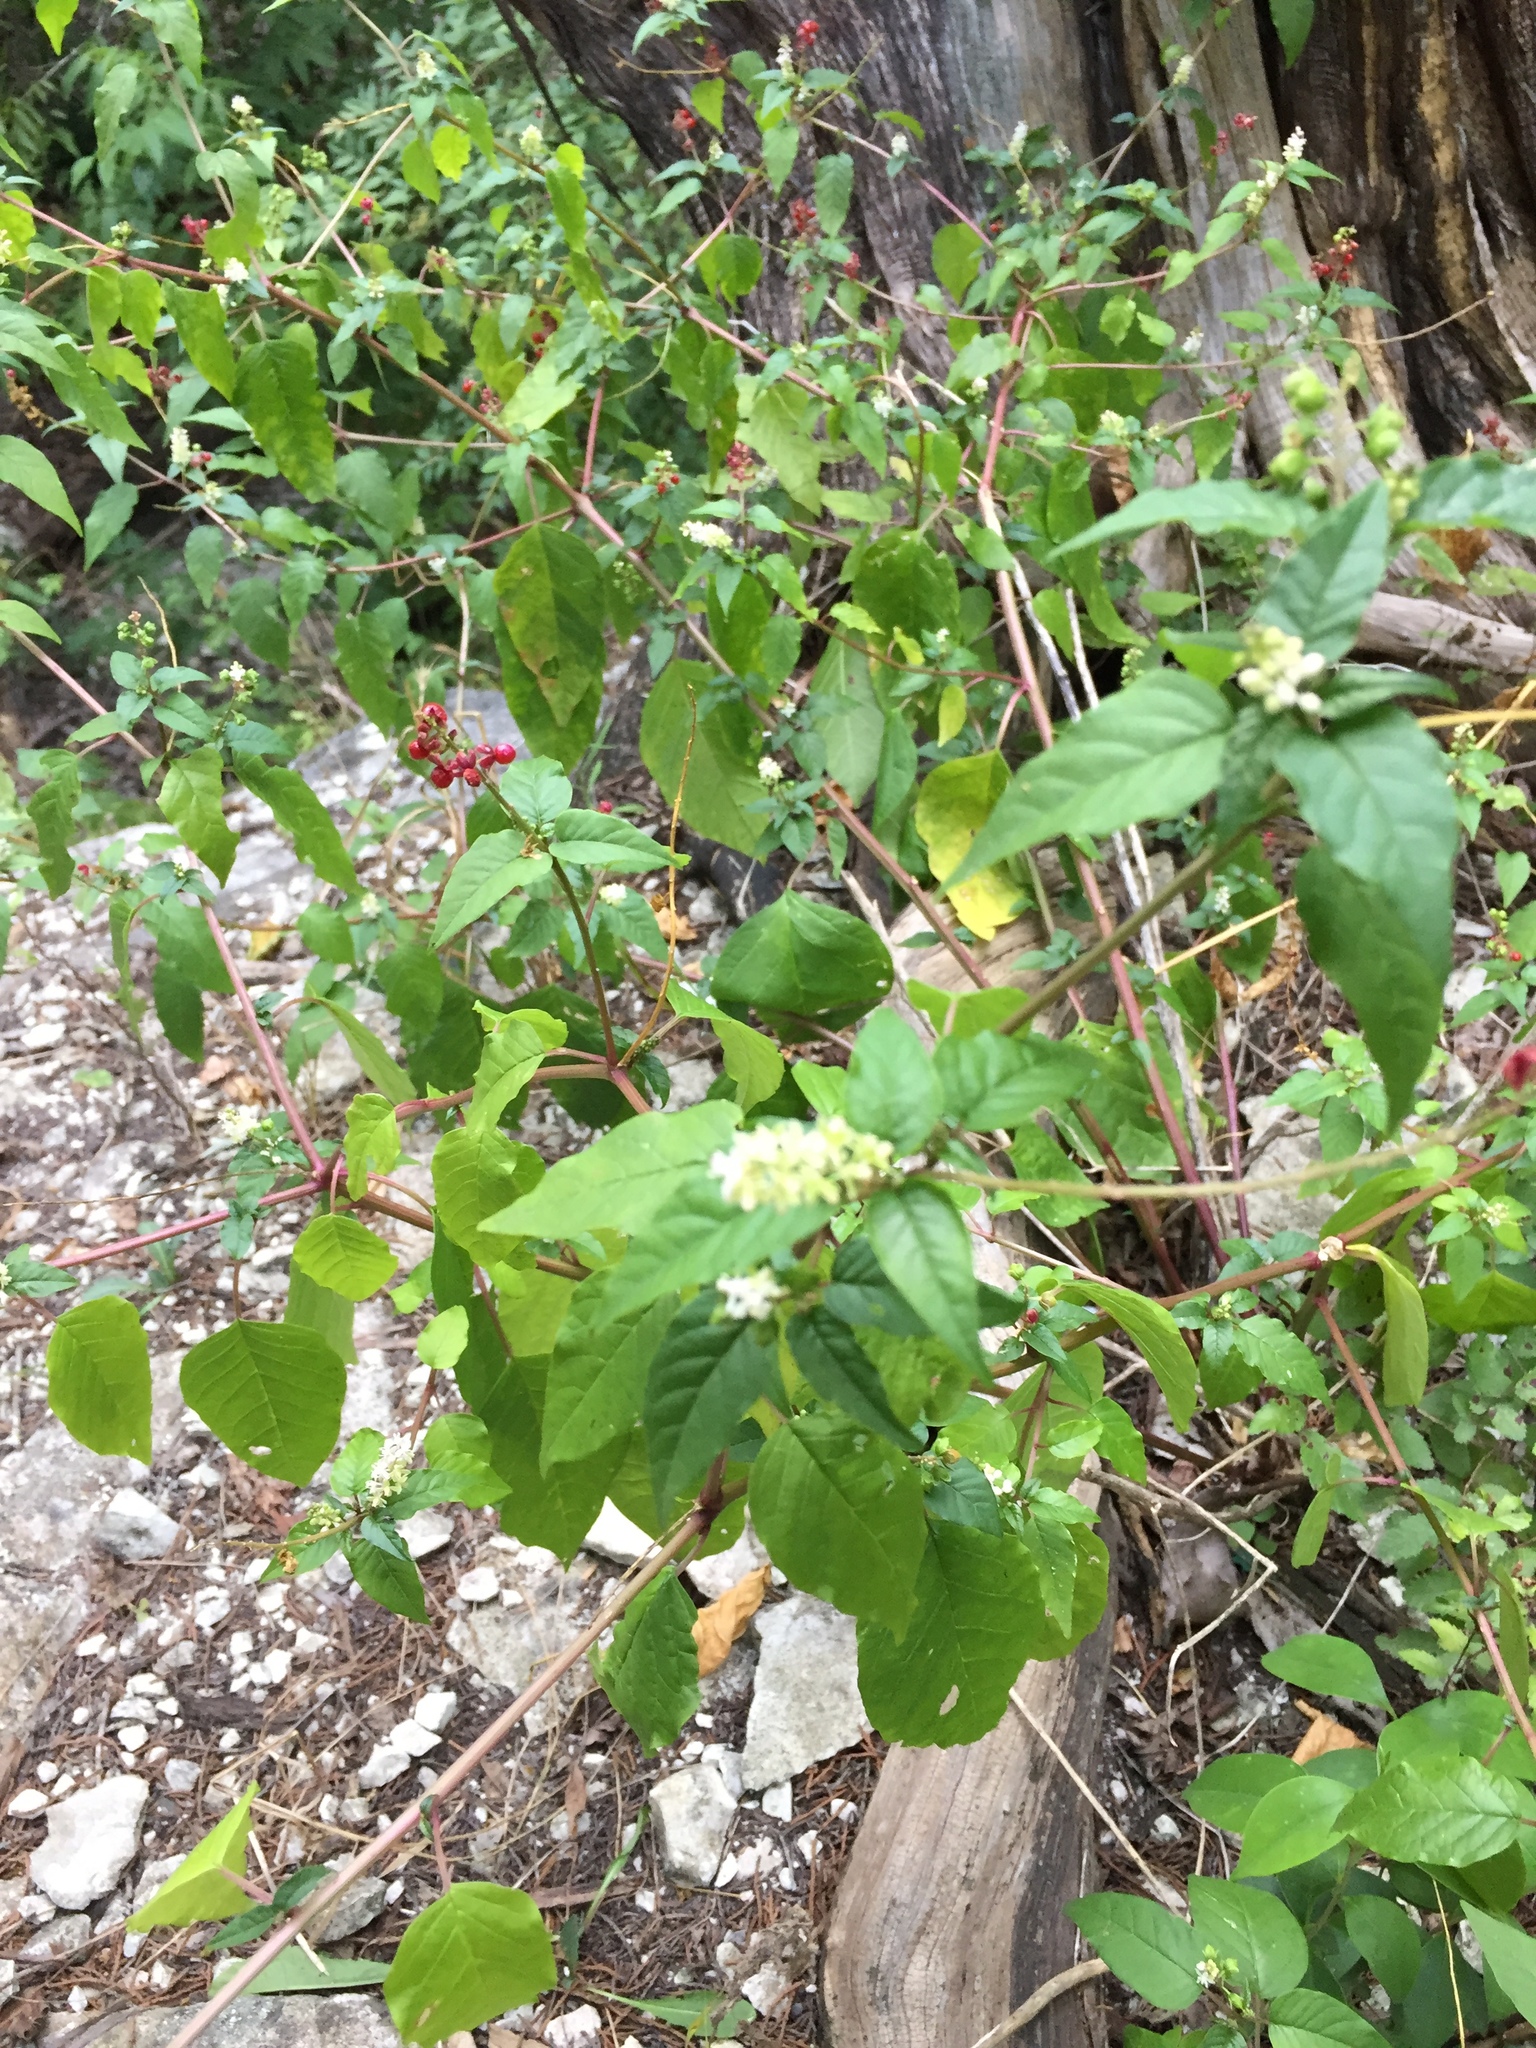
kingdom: Plantae
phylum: Tracheophyta
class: Magnoliopsida
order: Caryophyllales
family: Phytolaccaceae
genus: Rivina
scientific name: Rivina humilis
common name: Rougeplant
